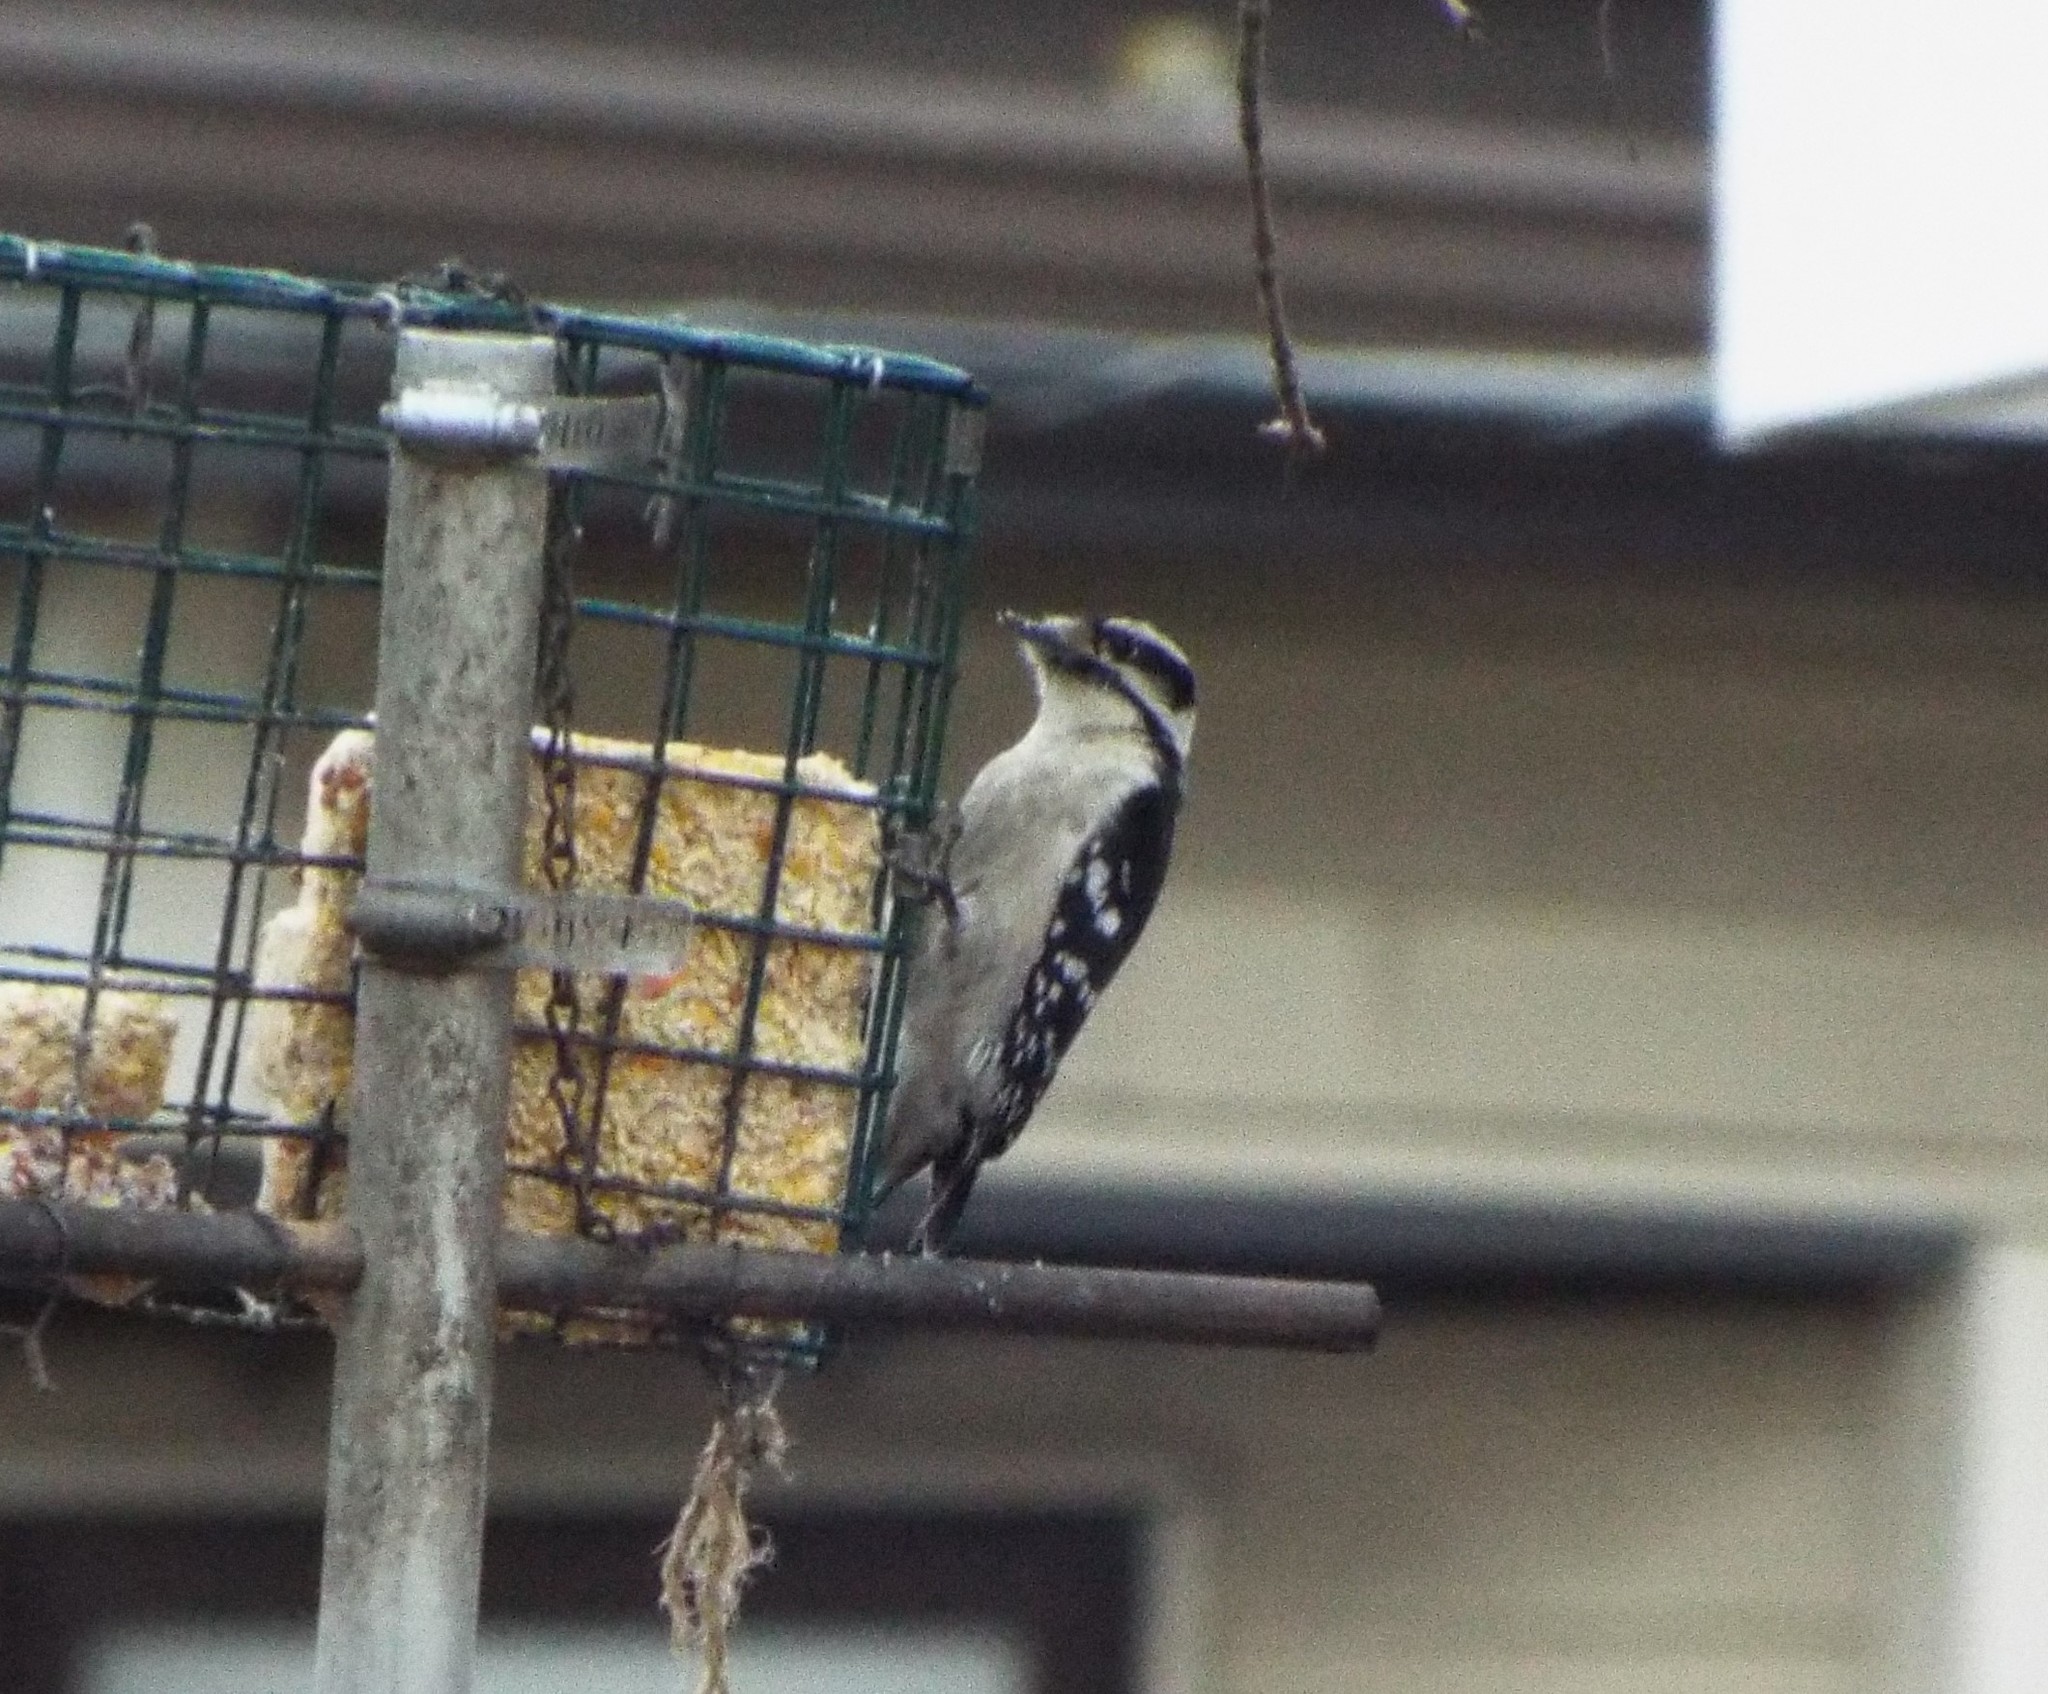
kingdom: Animalia
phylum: Chordata
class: Aves
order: Piciformes
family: Picidae
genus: Dryobates
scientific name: Dryobates pubescens
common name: Downy woodpecker
